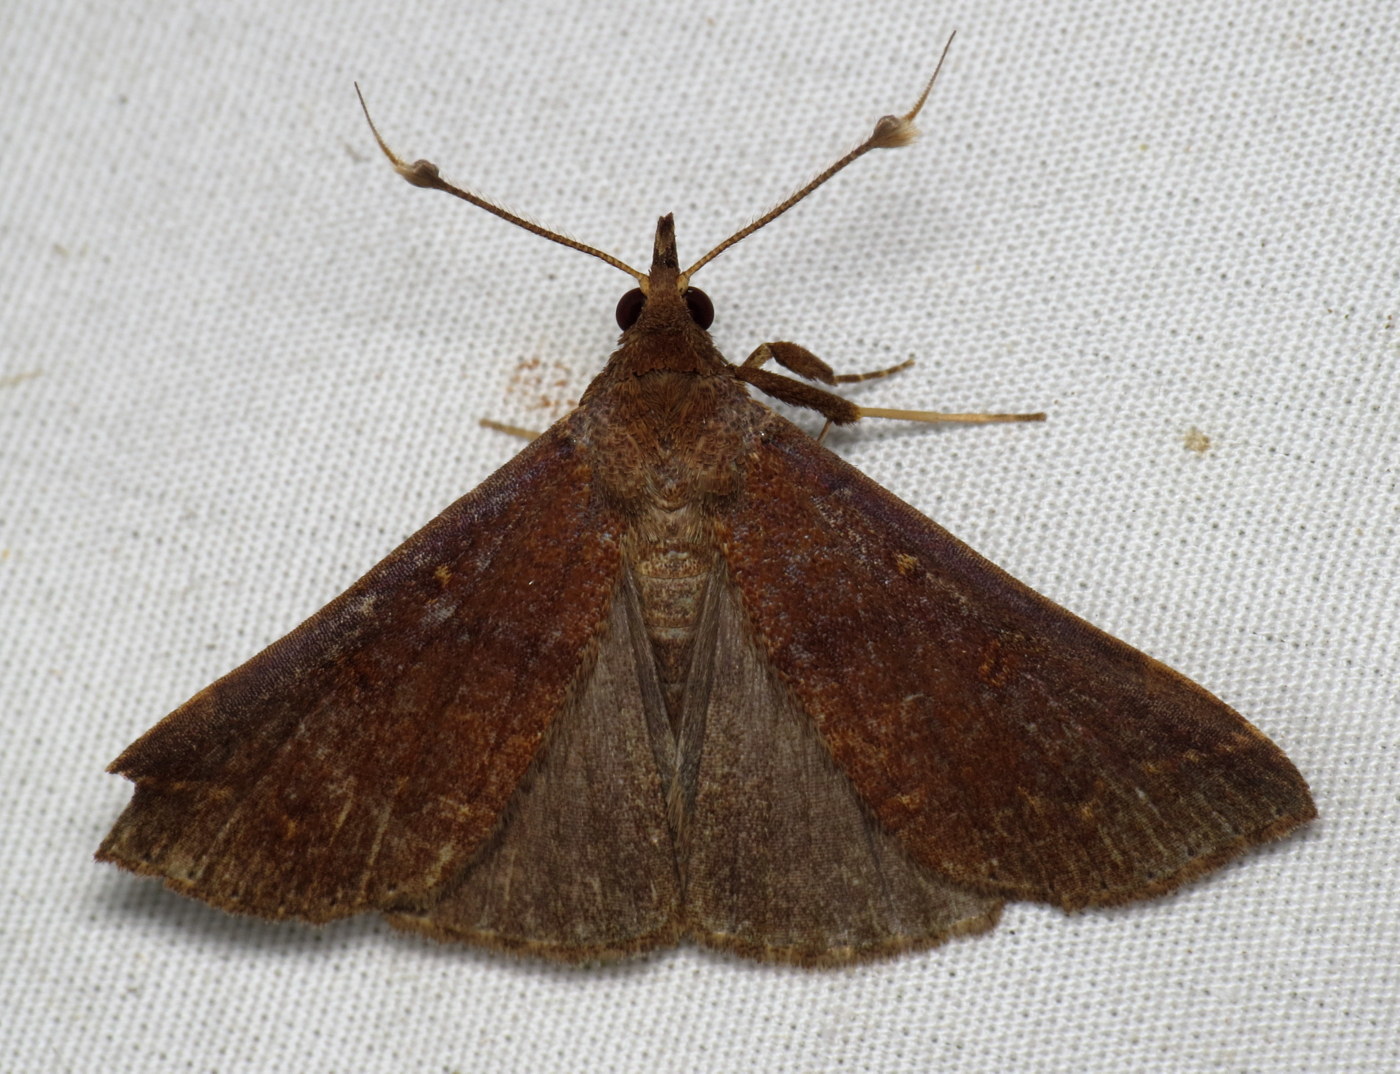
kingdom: Animalia
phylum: Arthropoda
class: Insecta
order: Lepidoptera
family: Erebidae
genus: Renia
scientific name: Renia discoloralis
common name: Discolored renia moth
